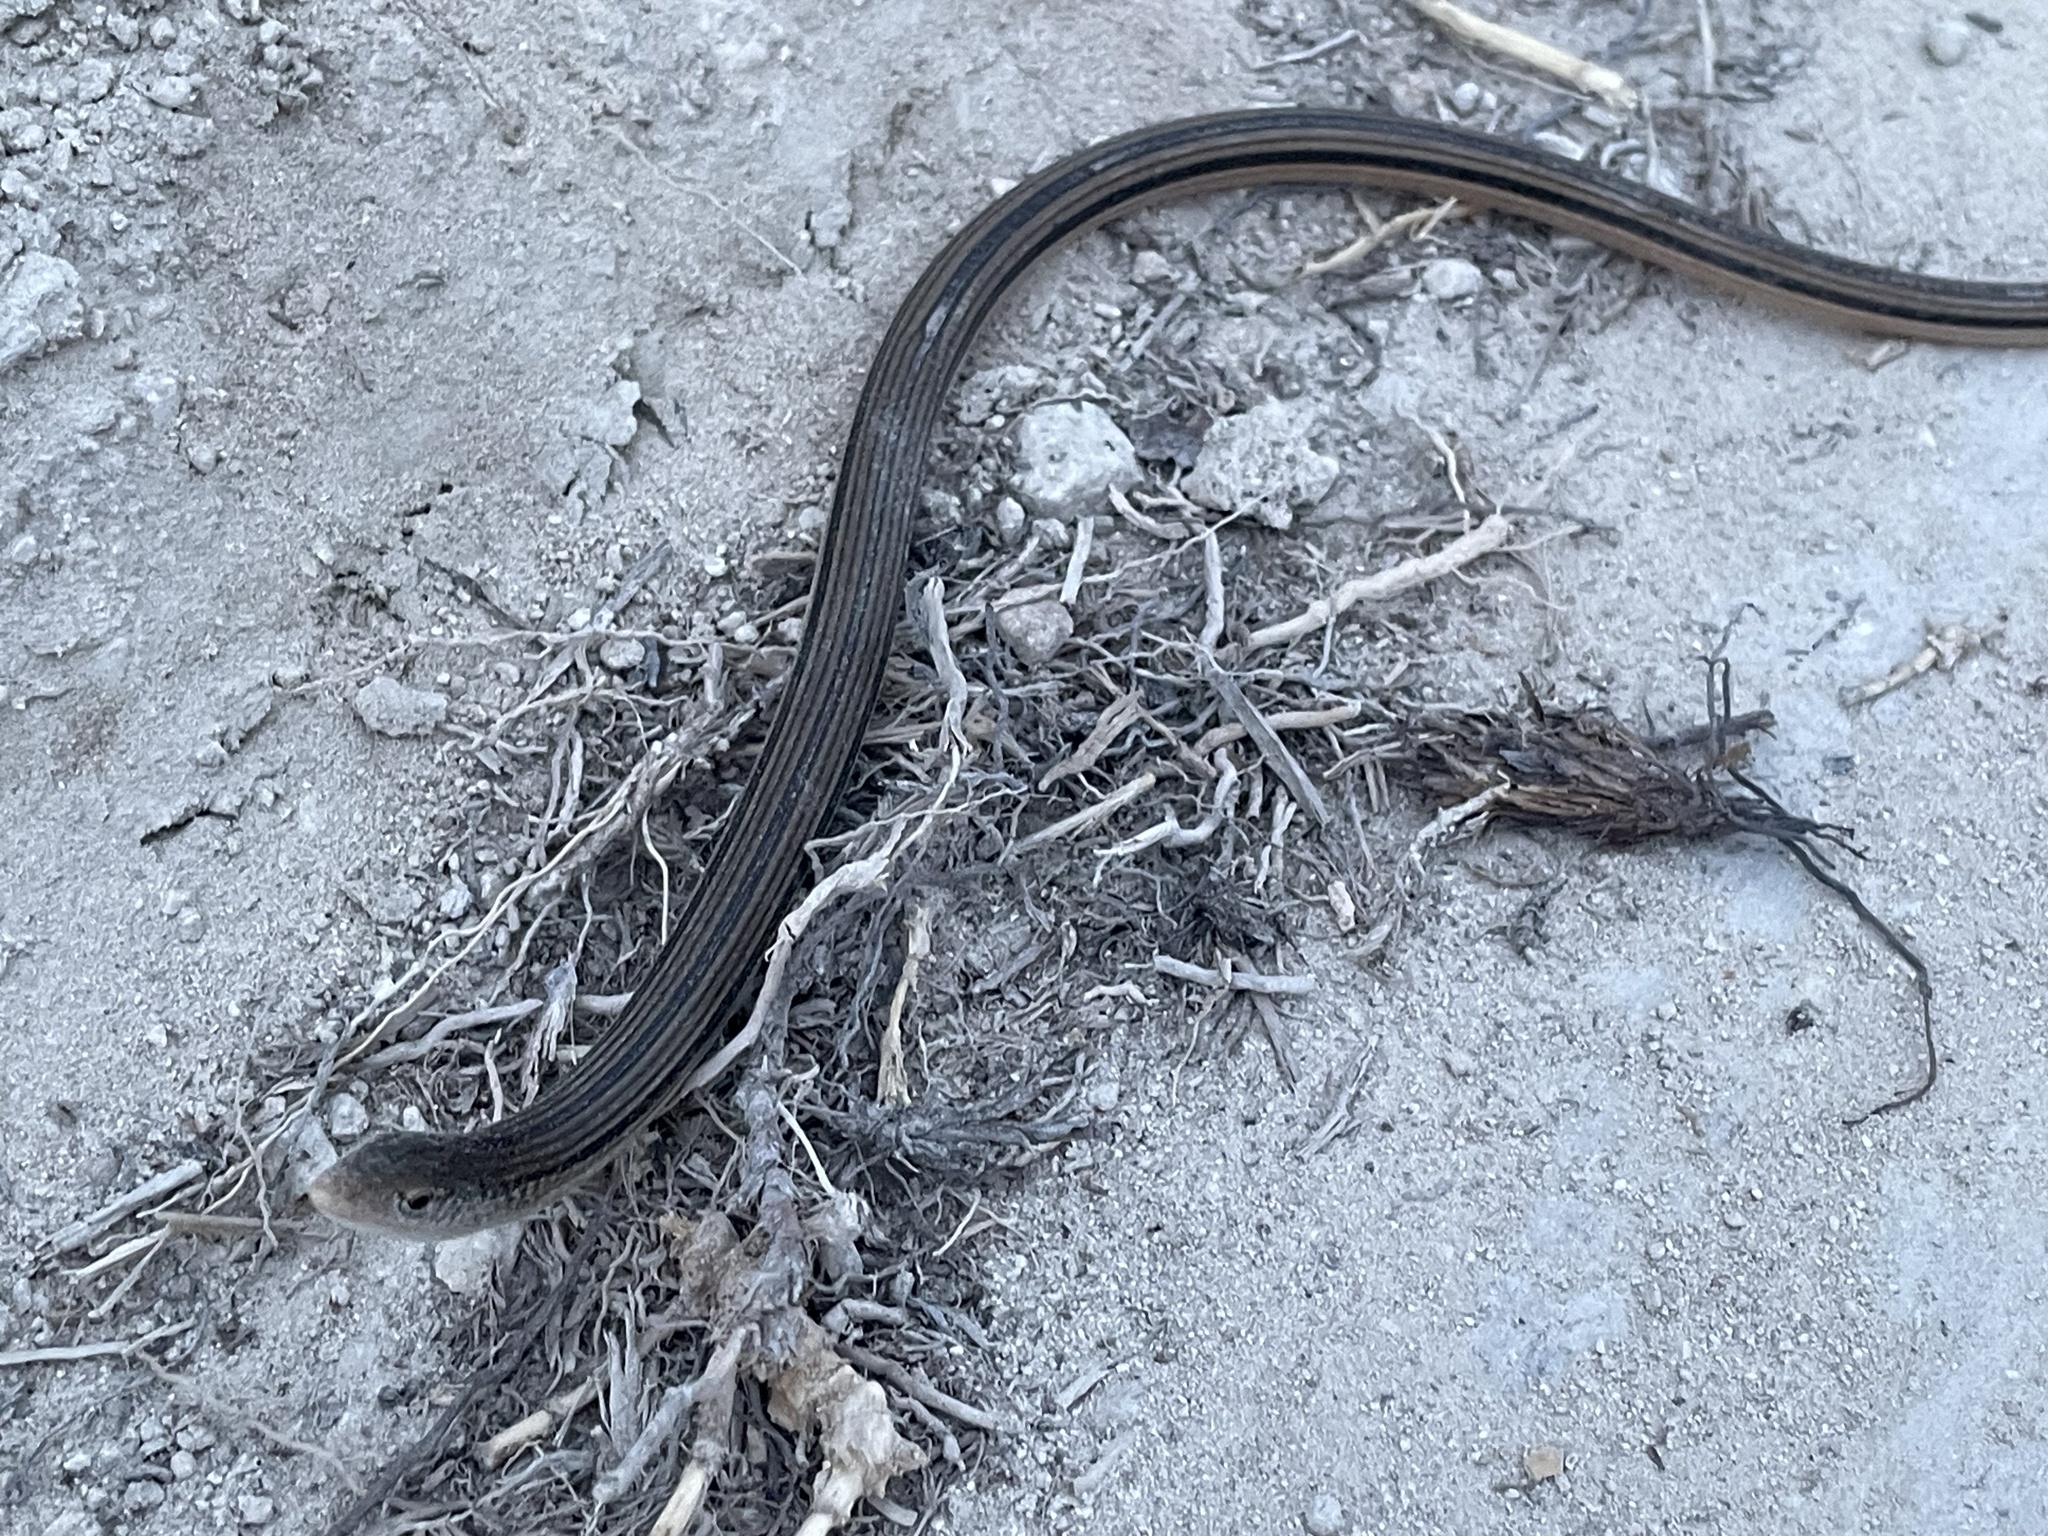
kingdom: Animalia
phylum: Chordata
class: Squamata
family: Anguidae
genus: Ophisaurus
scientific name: Ophisaurus compressus
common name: Island glass lizard
